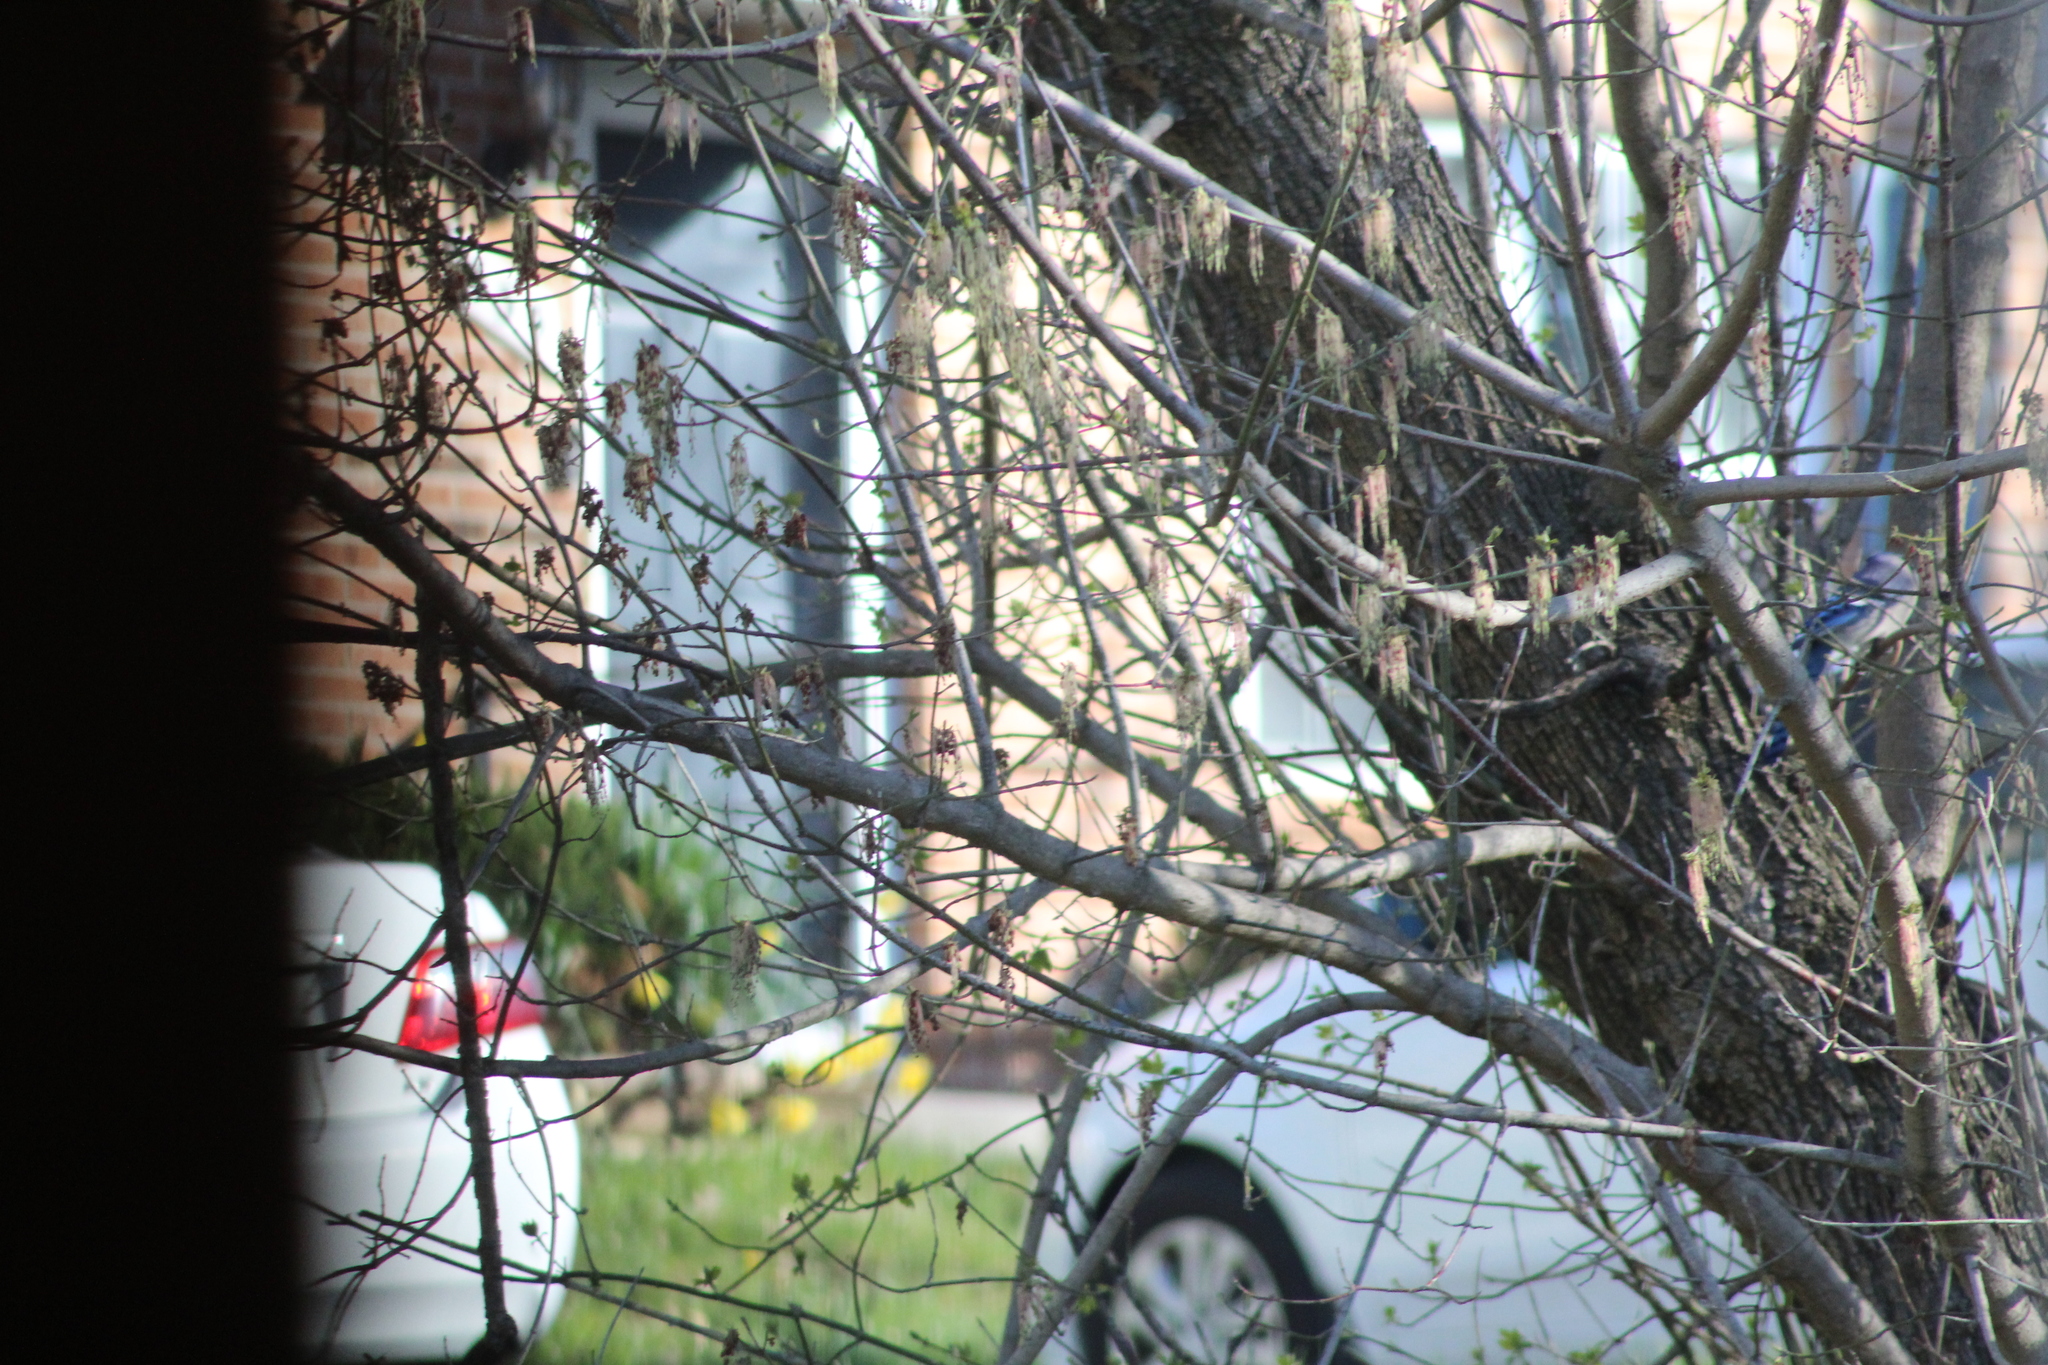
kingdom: Animalia
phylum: Chordata
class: Aves
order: Passeriformes
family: Corvidae
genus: Cyanocitta
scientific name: Cyanocitta cristata
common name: Blue jay
